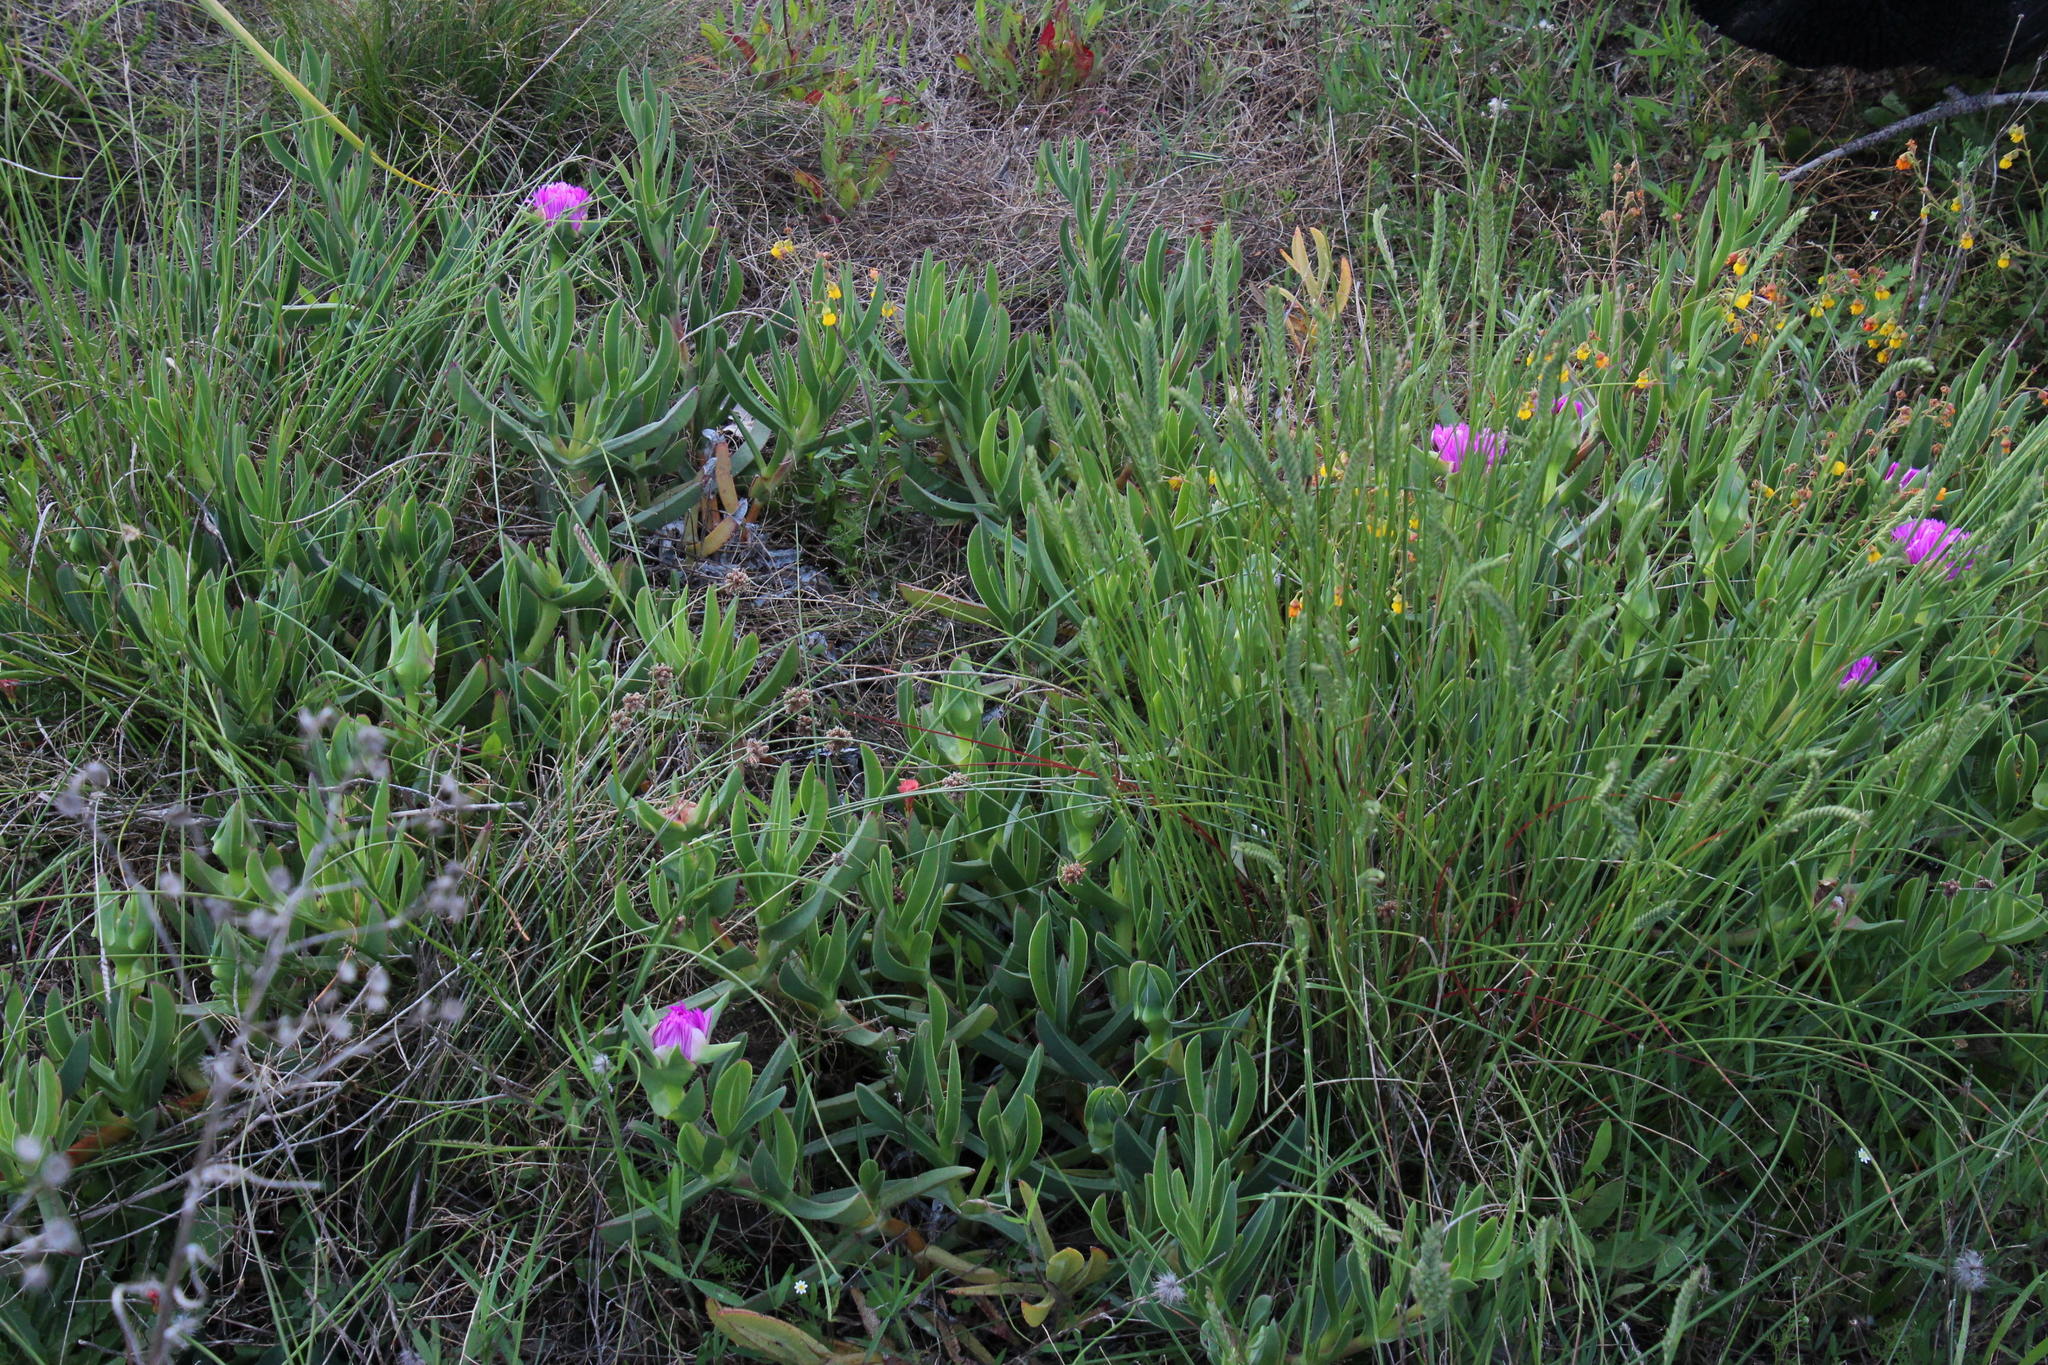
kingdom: Plantae
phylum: Tracheophyta
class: Magnoliopsida
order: Caryophyllales
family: Aizoaceae
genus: Carpobrotus
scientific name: Carpobrotus acinaciformis
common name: Sally-my-handsome
